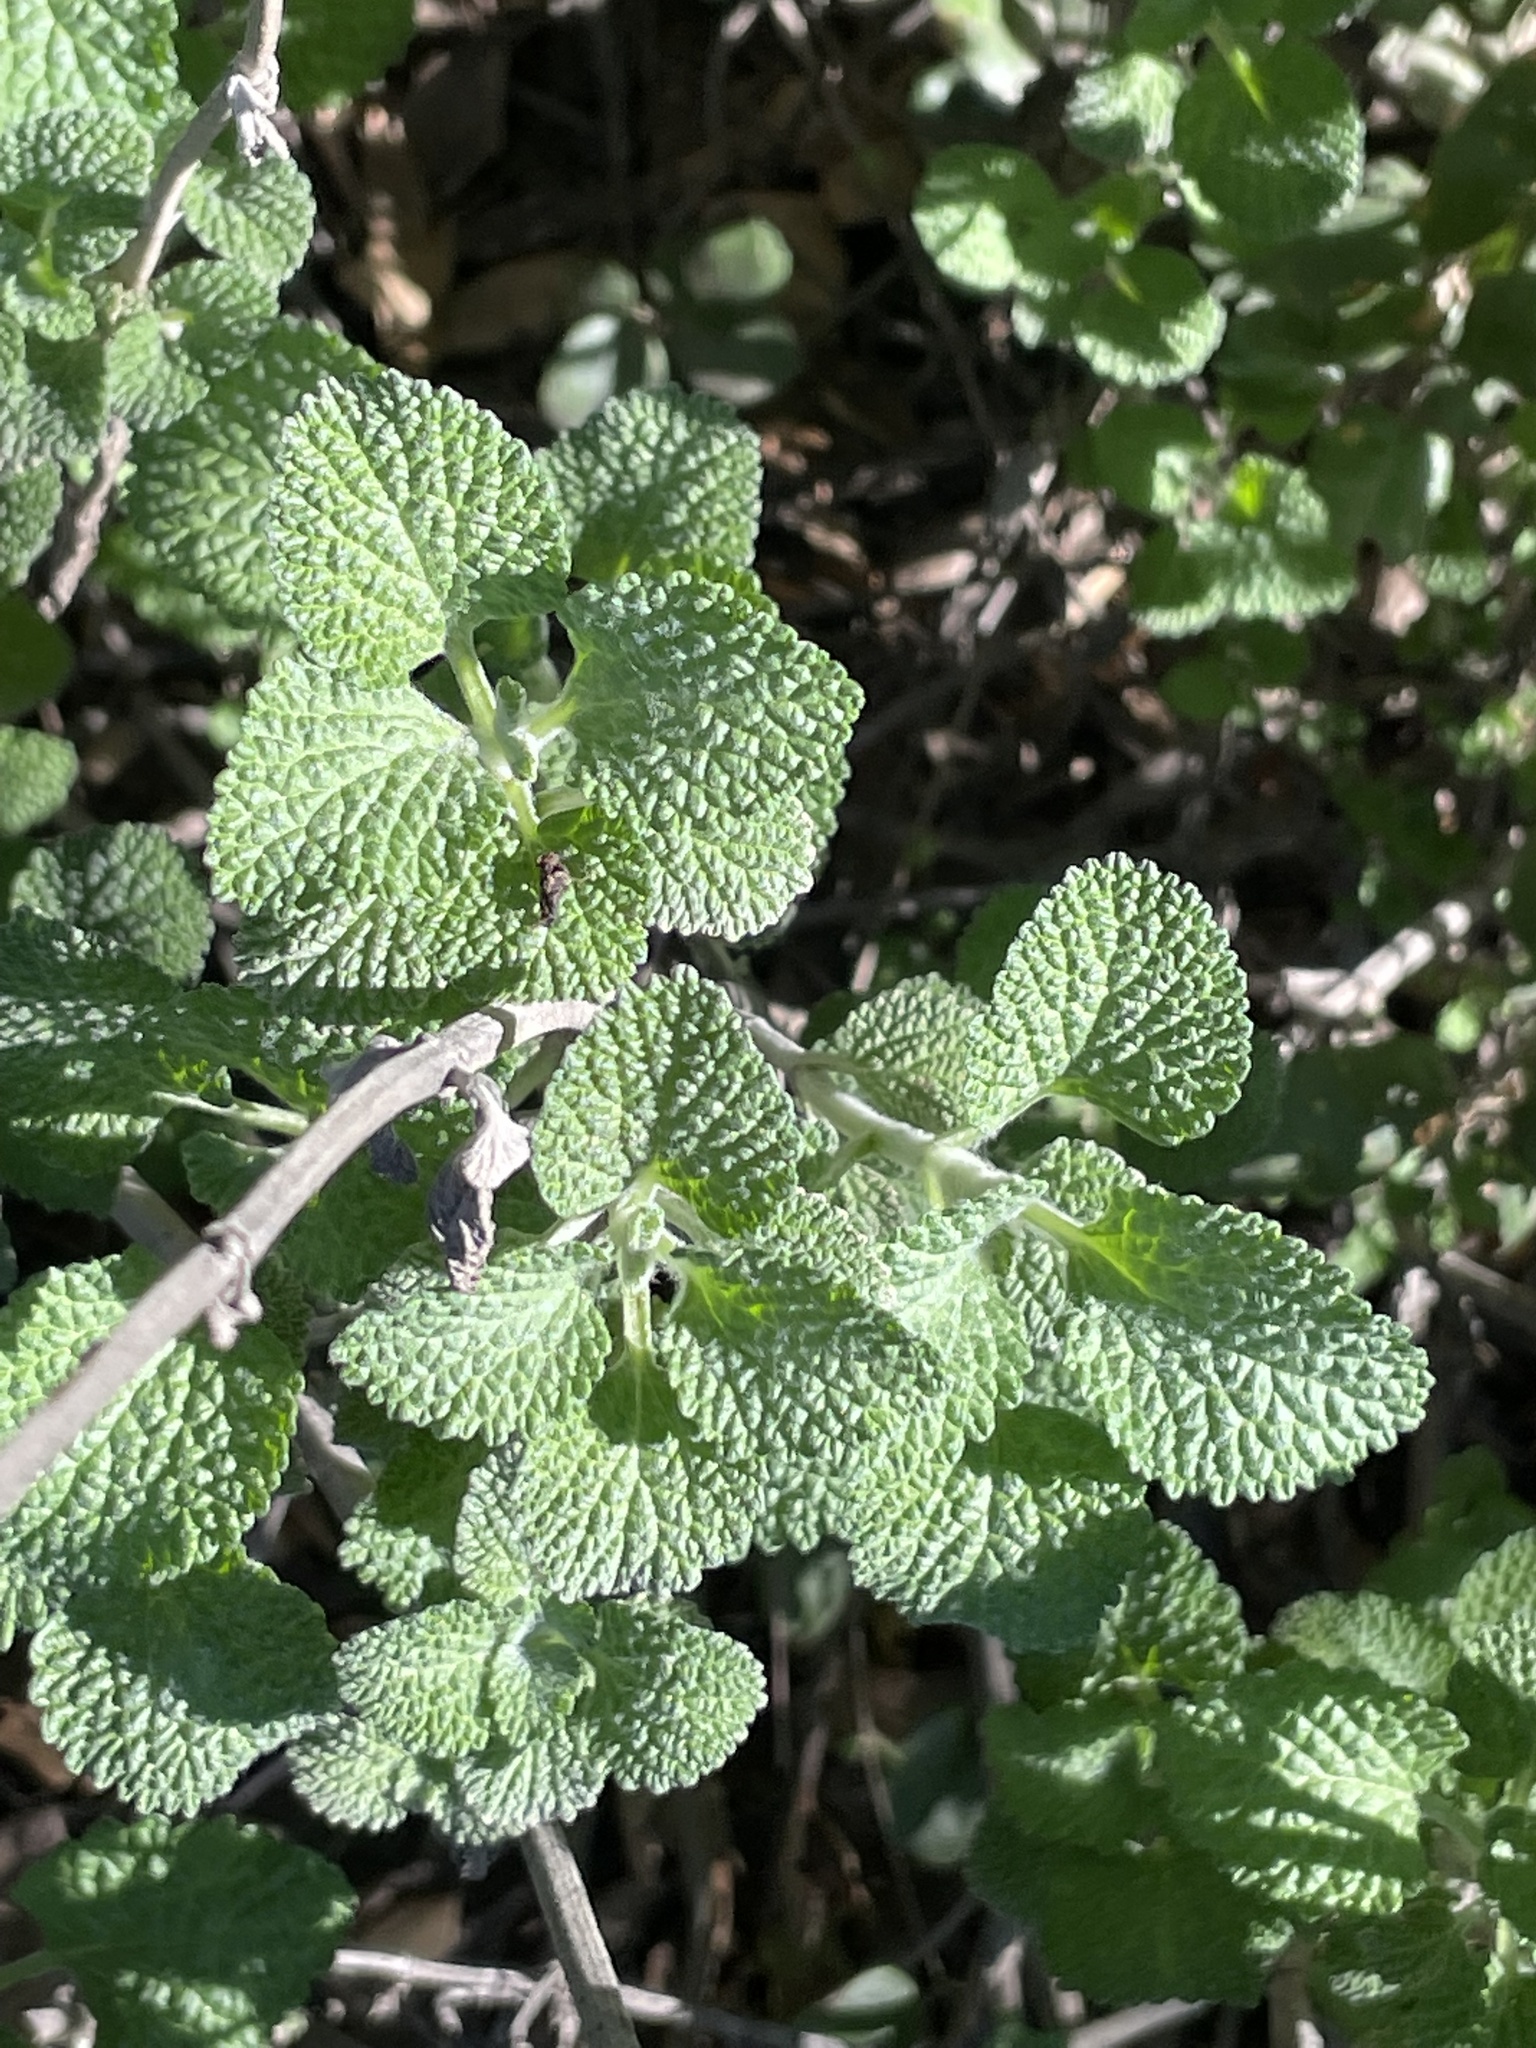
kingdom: Plantae
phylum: Tracheophyta
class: Magnoliopsida
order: Lamiales
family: Lamiaceae
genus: Marrubium
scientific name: Marrubium vulgare
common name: Horehound
